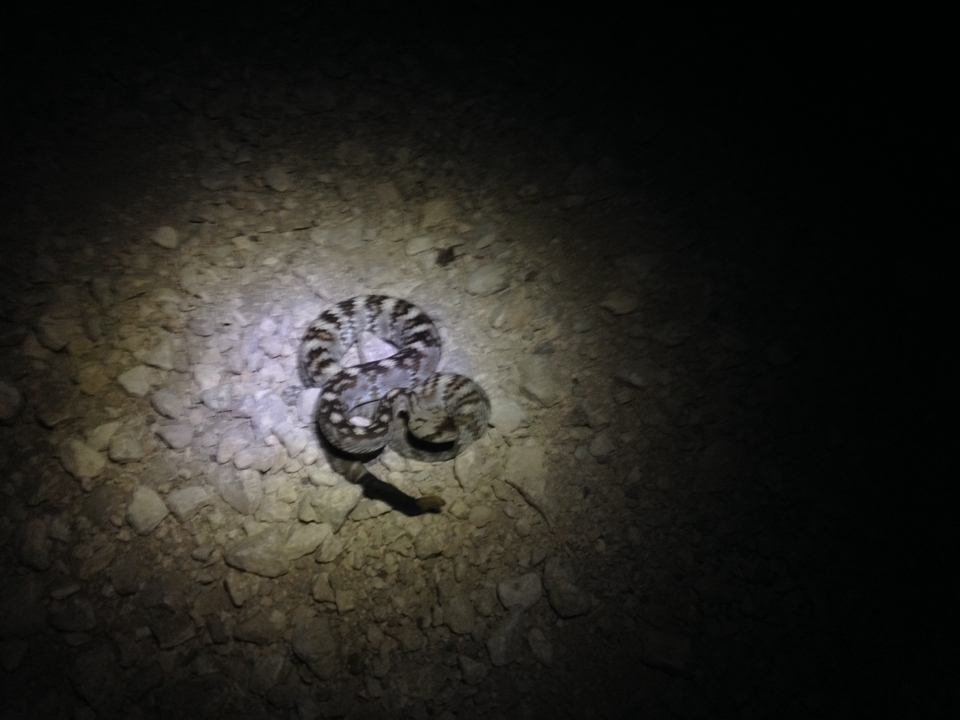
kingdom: Animalia
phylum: Chordata
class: Squamata
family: Viperidae
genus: Crotalus
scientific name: Crotalus ornatus
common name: Black-tailed rattlesnake
